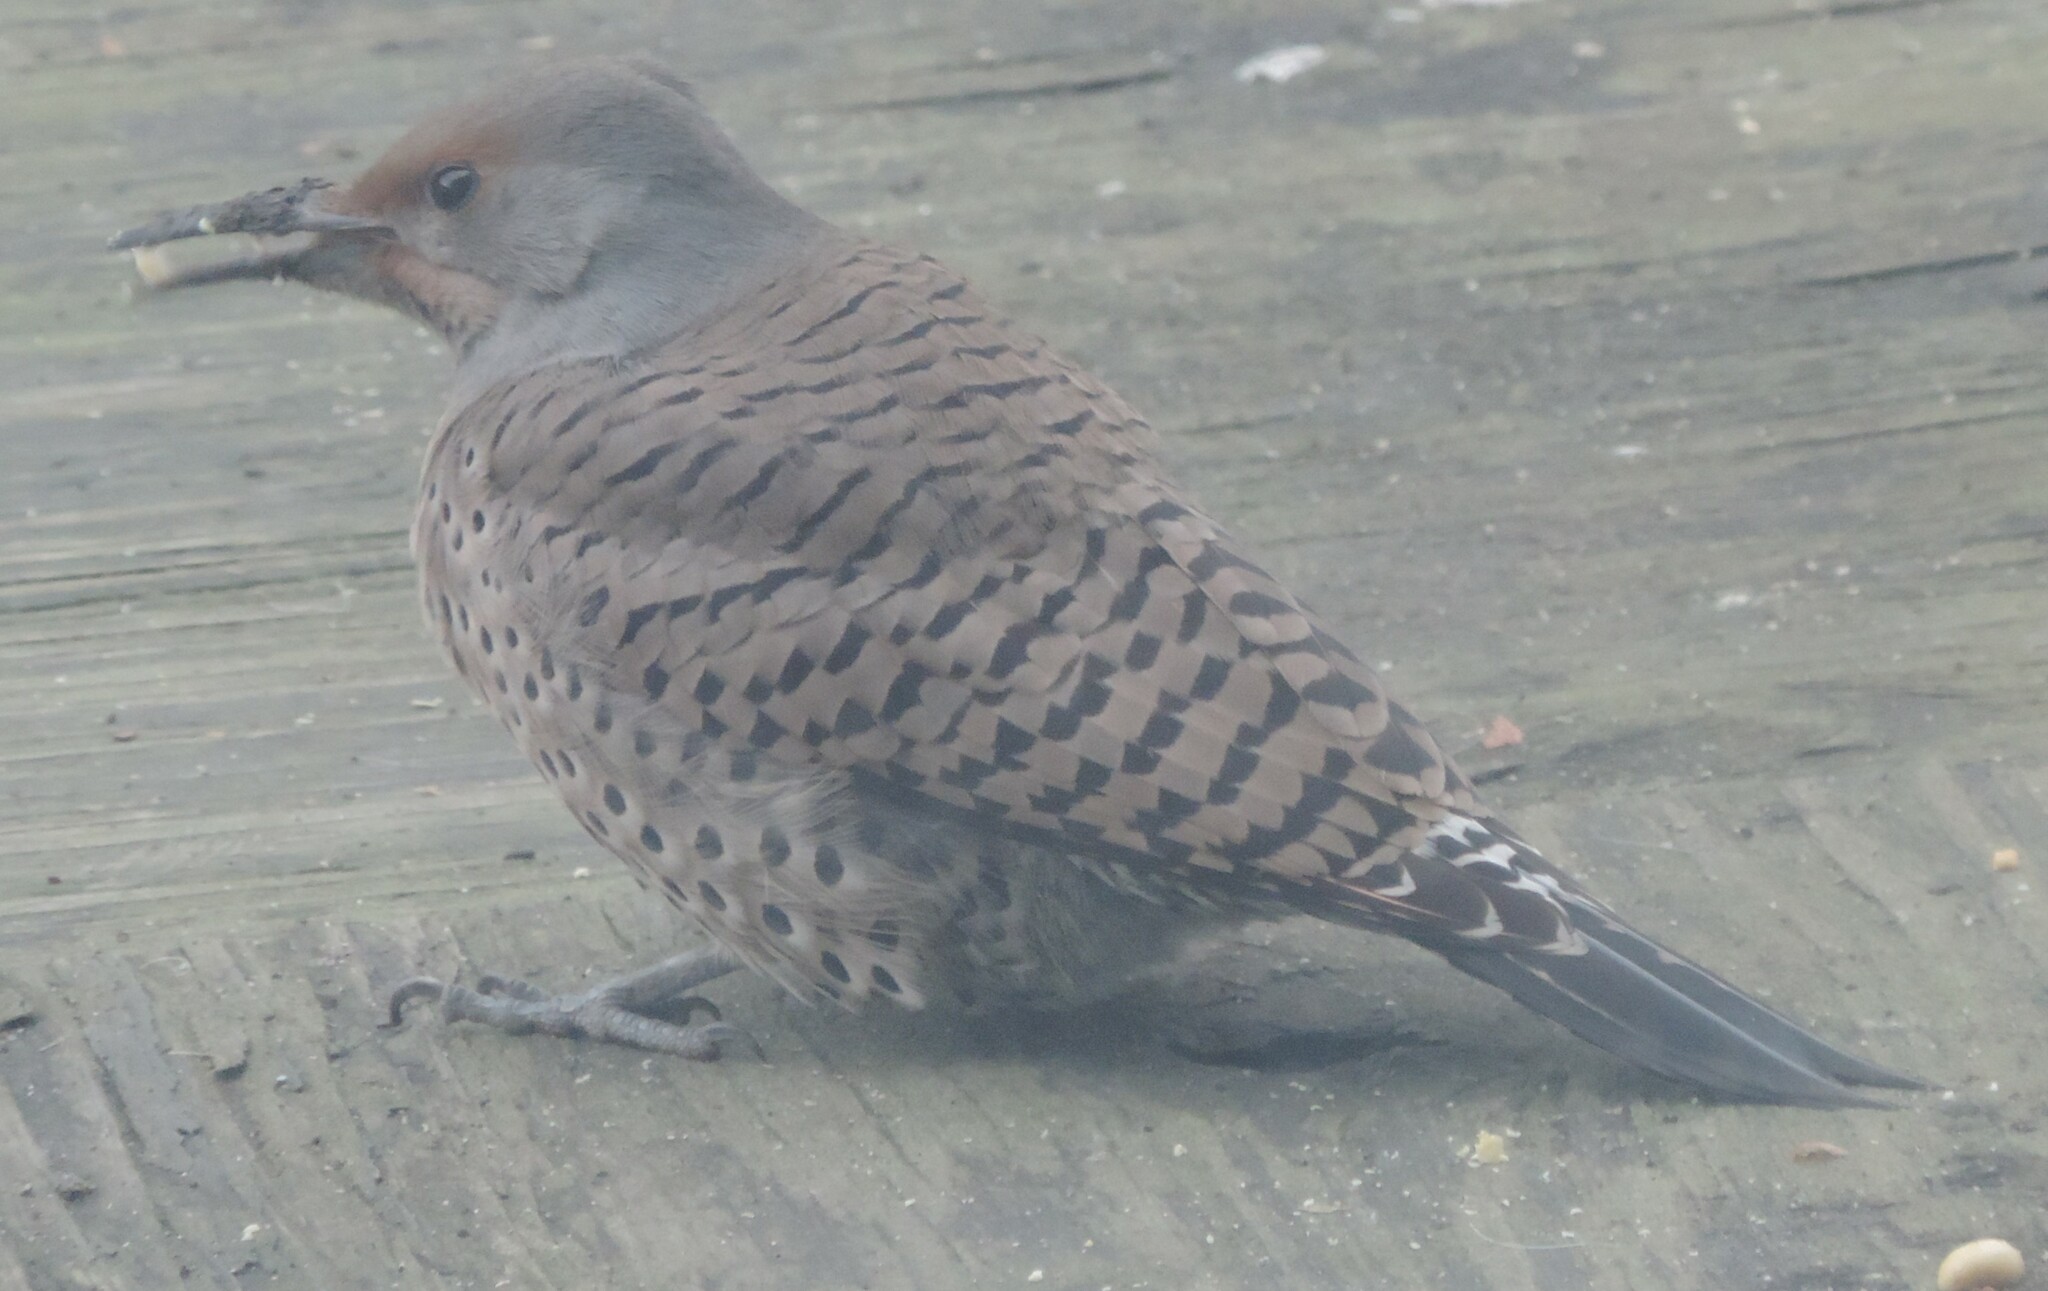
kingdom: Animalia
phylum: Chordata
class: Aves
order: Piciformes
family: Picidae
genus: Colaptes
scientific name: Colaptes auratus
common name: Northern flicker
